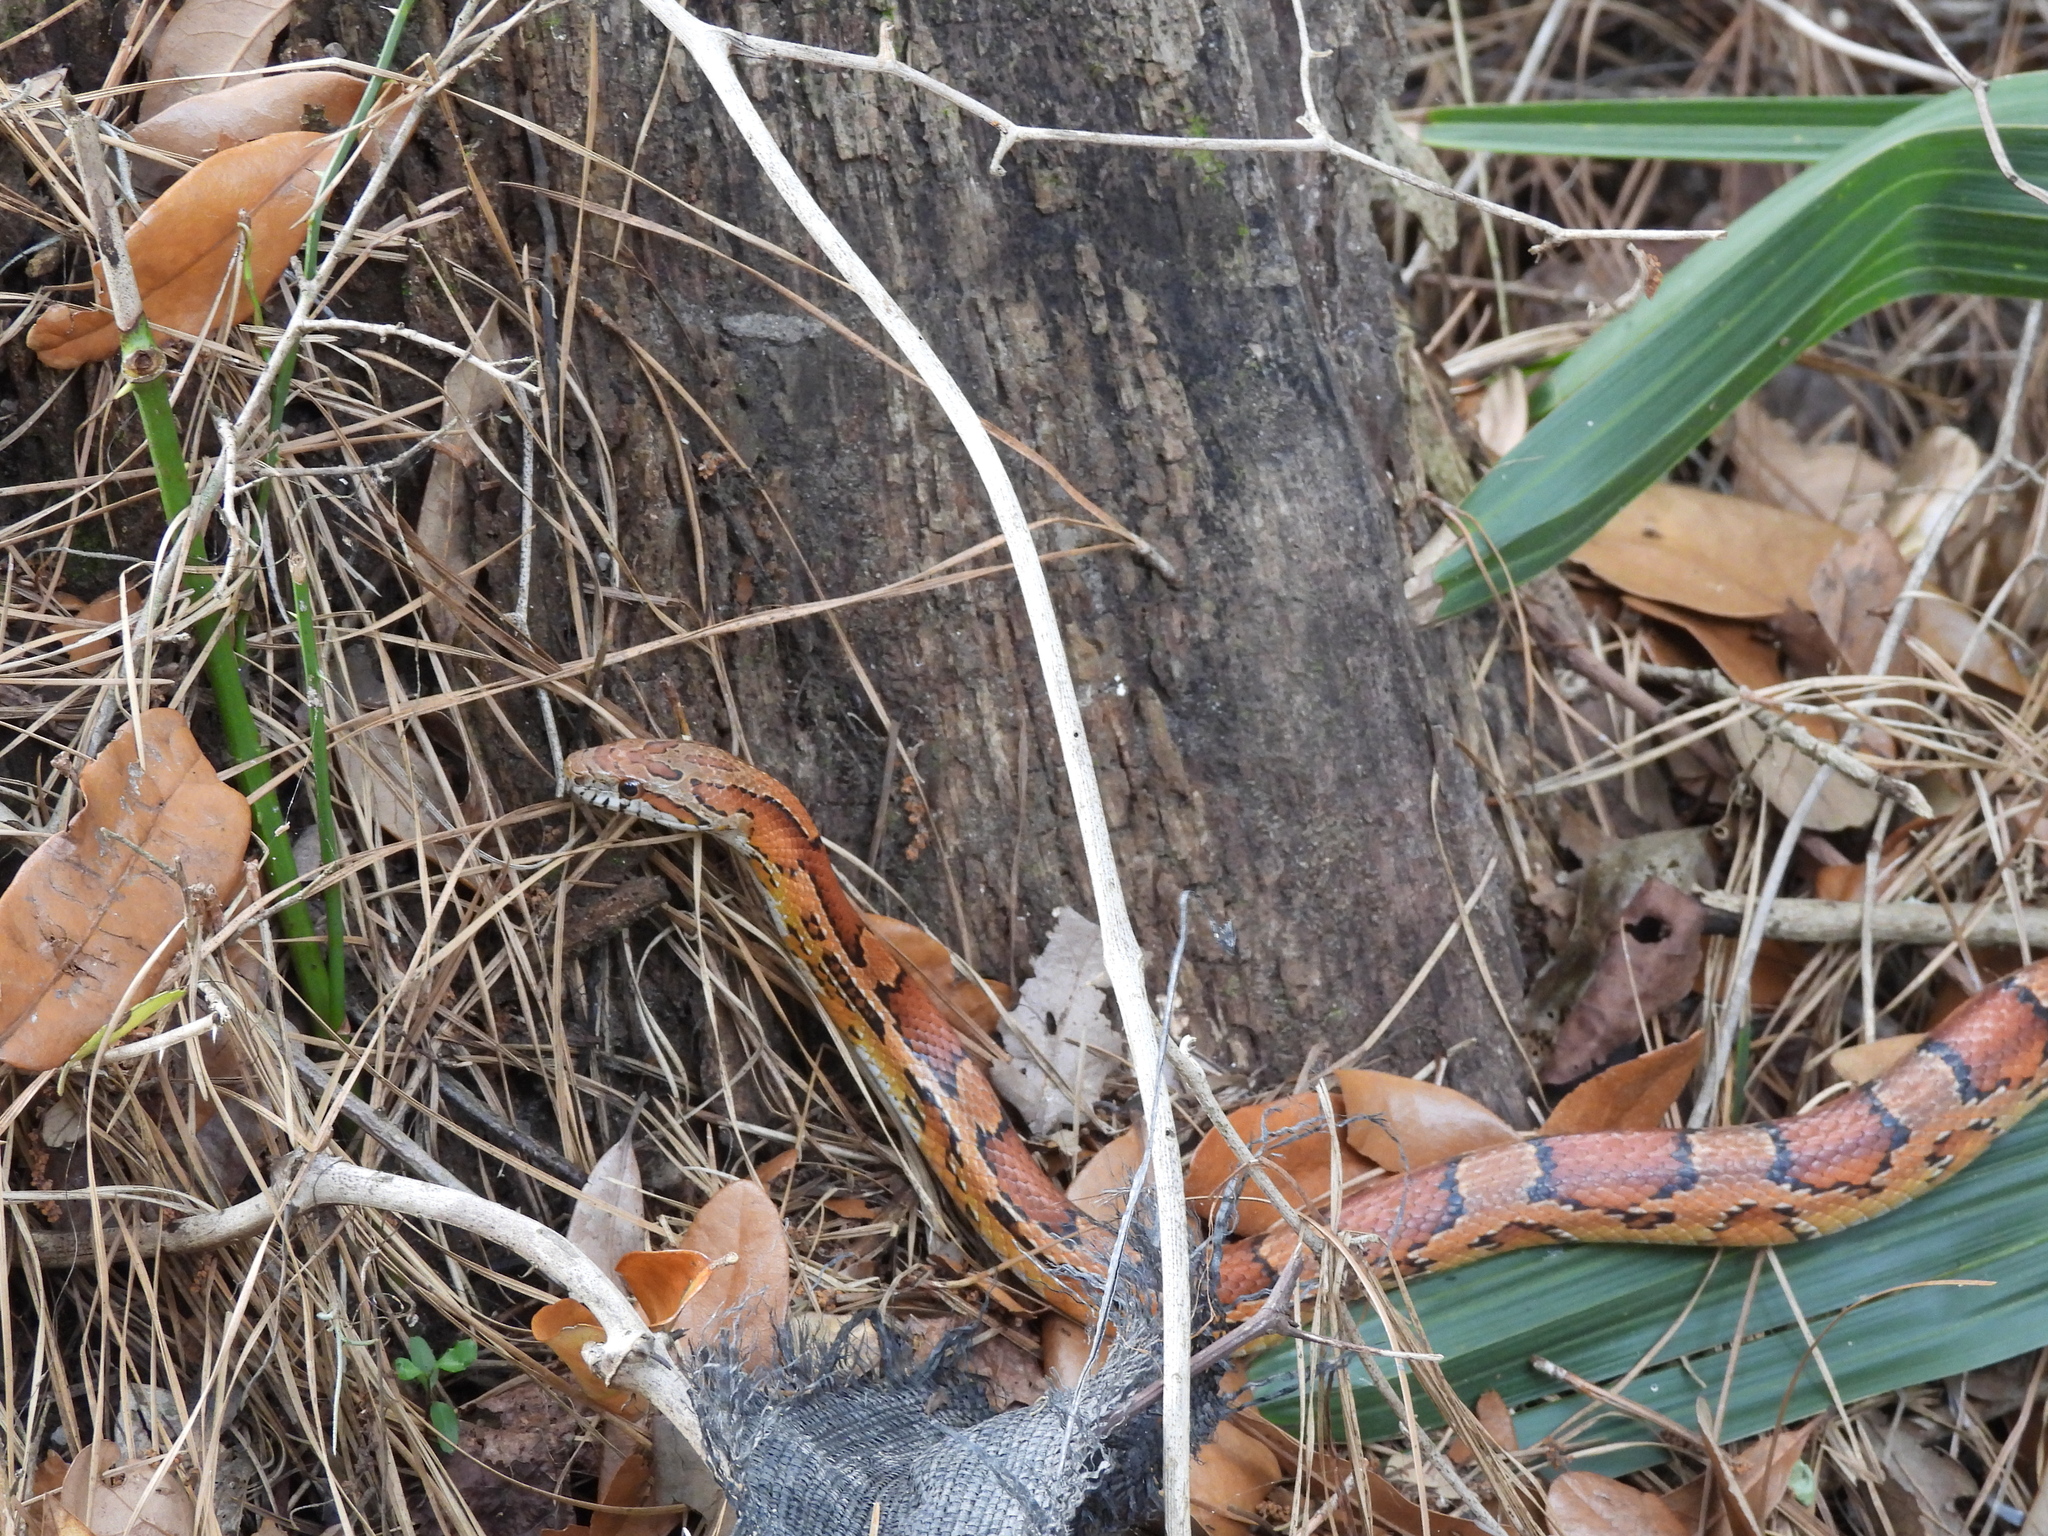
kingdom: Animalia
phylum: Chordata
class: Squamata
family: Colubridae
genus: Pantherophis
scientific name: Pantherophis guttatus
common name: Red cornsnake
